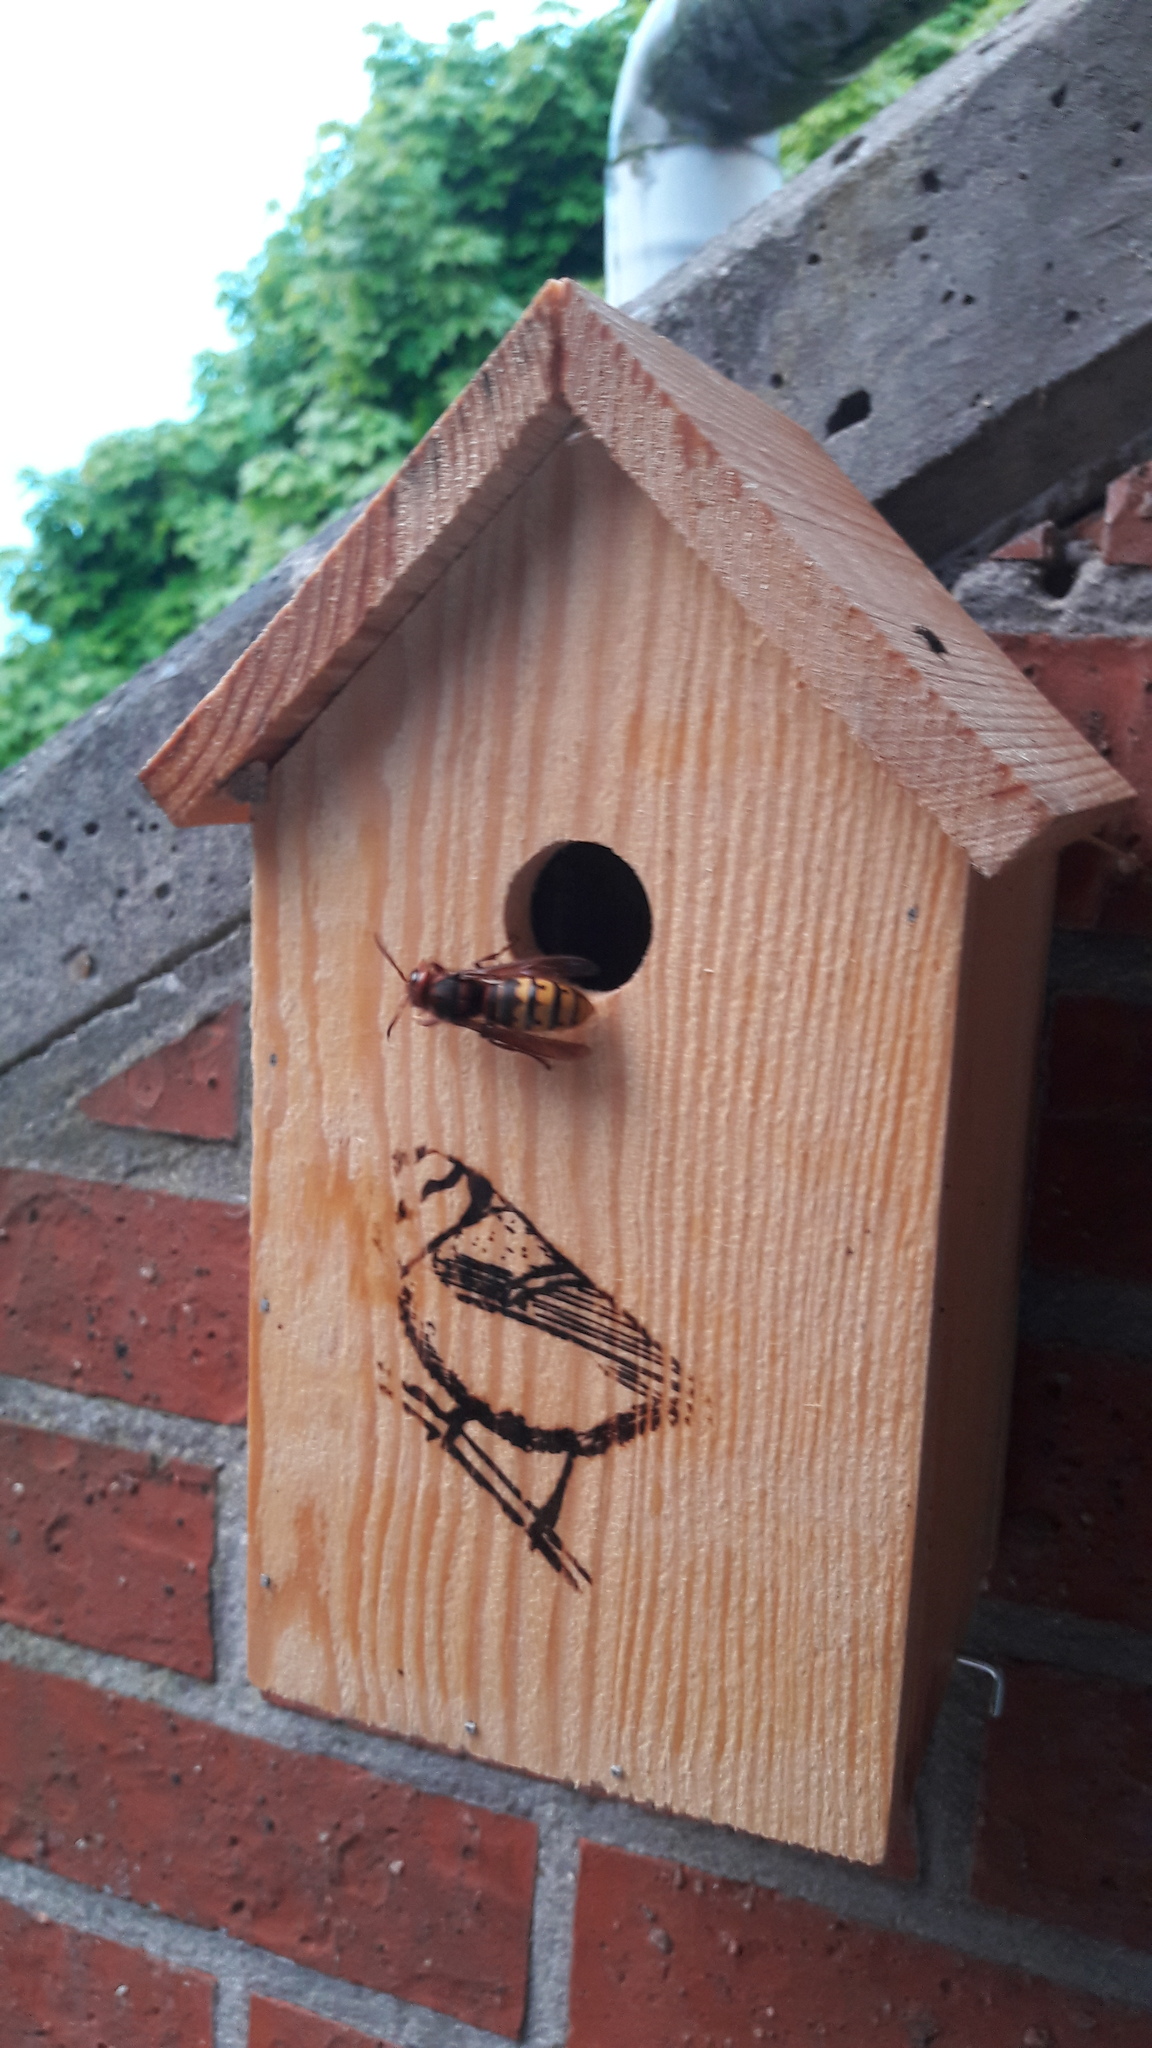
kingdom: Animalia
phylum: Arthropoda
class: Insecta
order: Hymenoptera
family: Vespidae
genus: Vespa
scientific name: Vespa crabro
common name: Hornet
